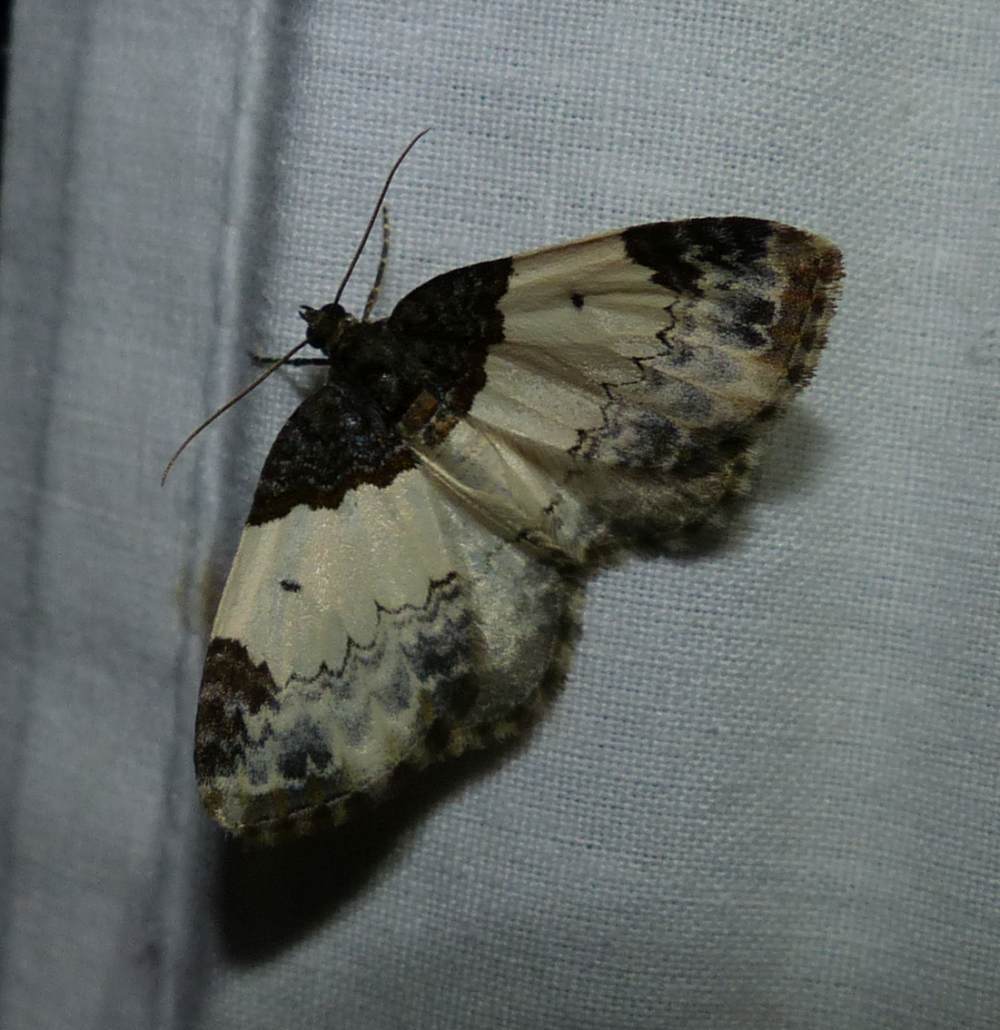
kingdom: Animalia
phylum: Arthropoda
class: Insecta
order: Lepidoptera
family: Geometridae
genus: Mesoleuca
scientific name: Mesoleuca ruficillata
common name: White-ribboned carpet moth
